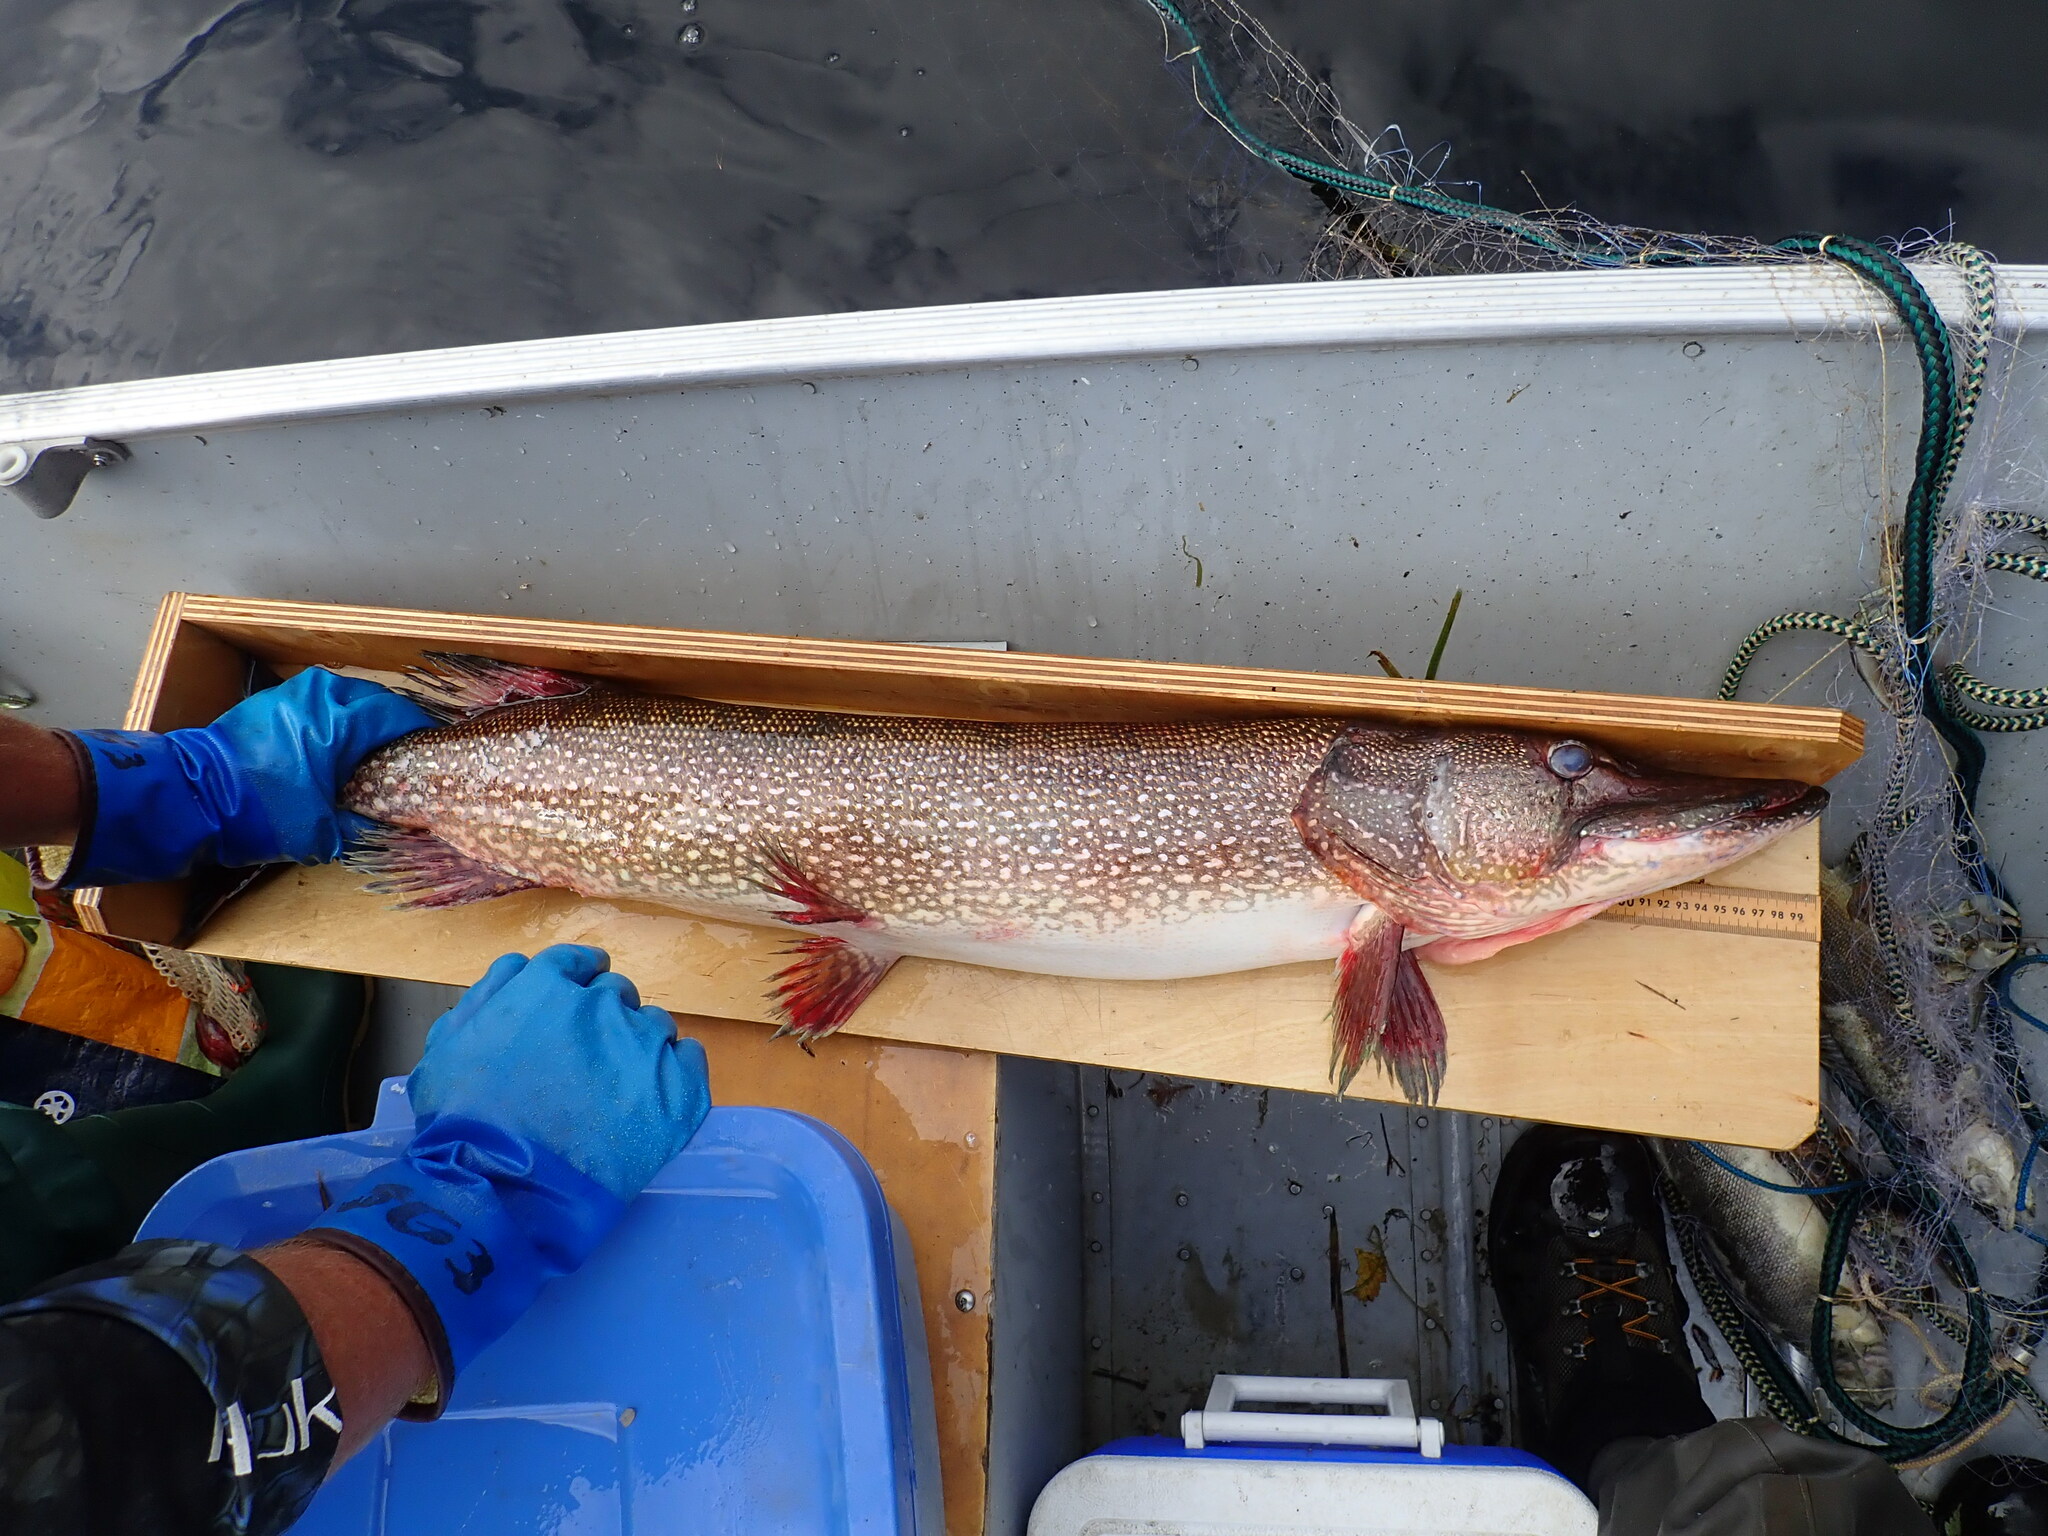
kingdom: Animalia
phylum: Chordata
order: Esociformes
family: Esocidae
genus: Esox
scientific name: Esox lucius
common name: Northern pike
